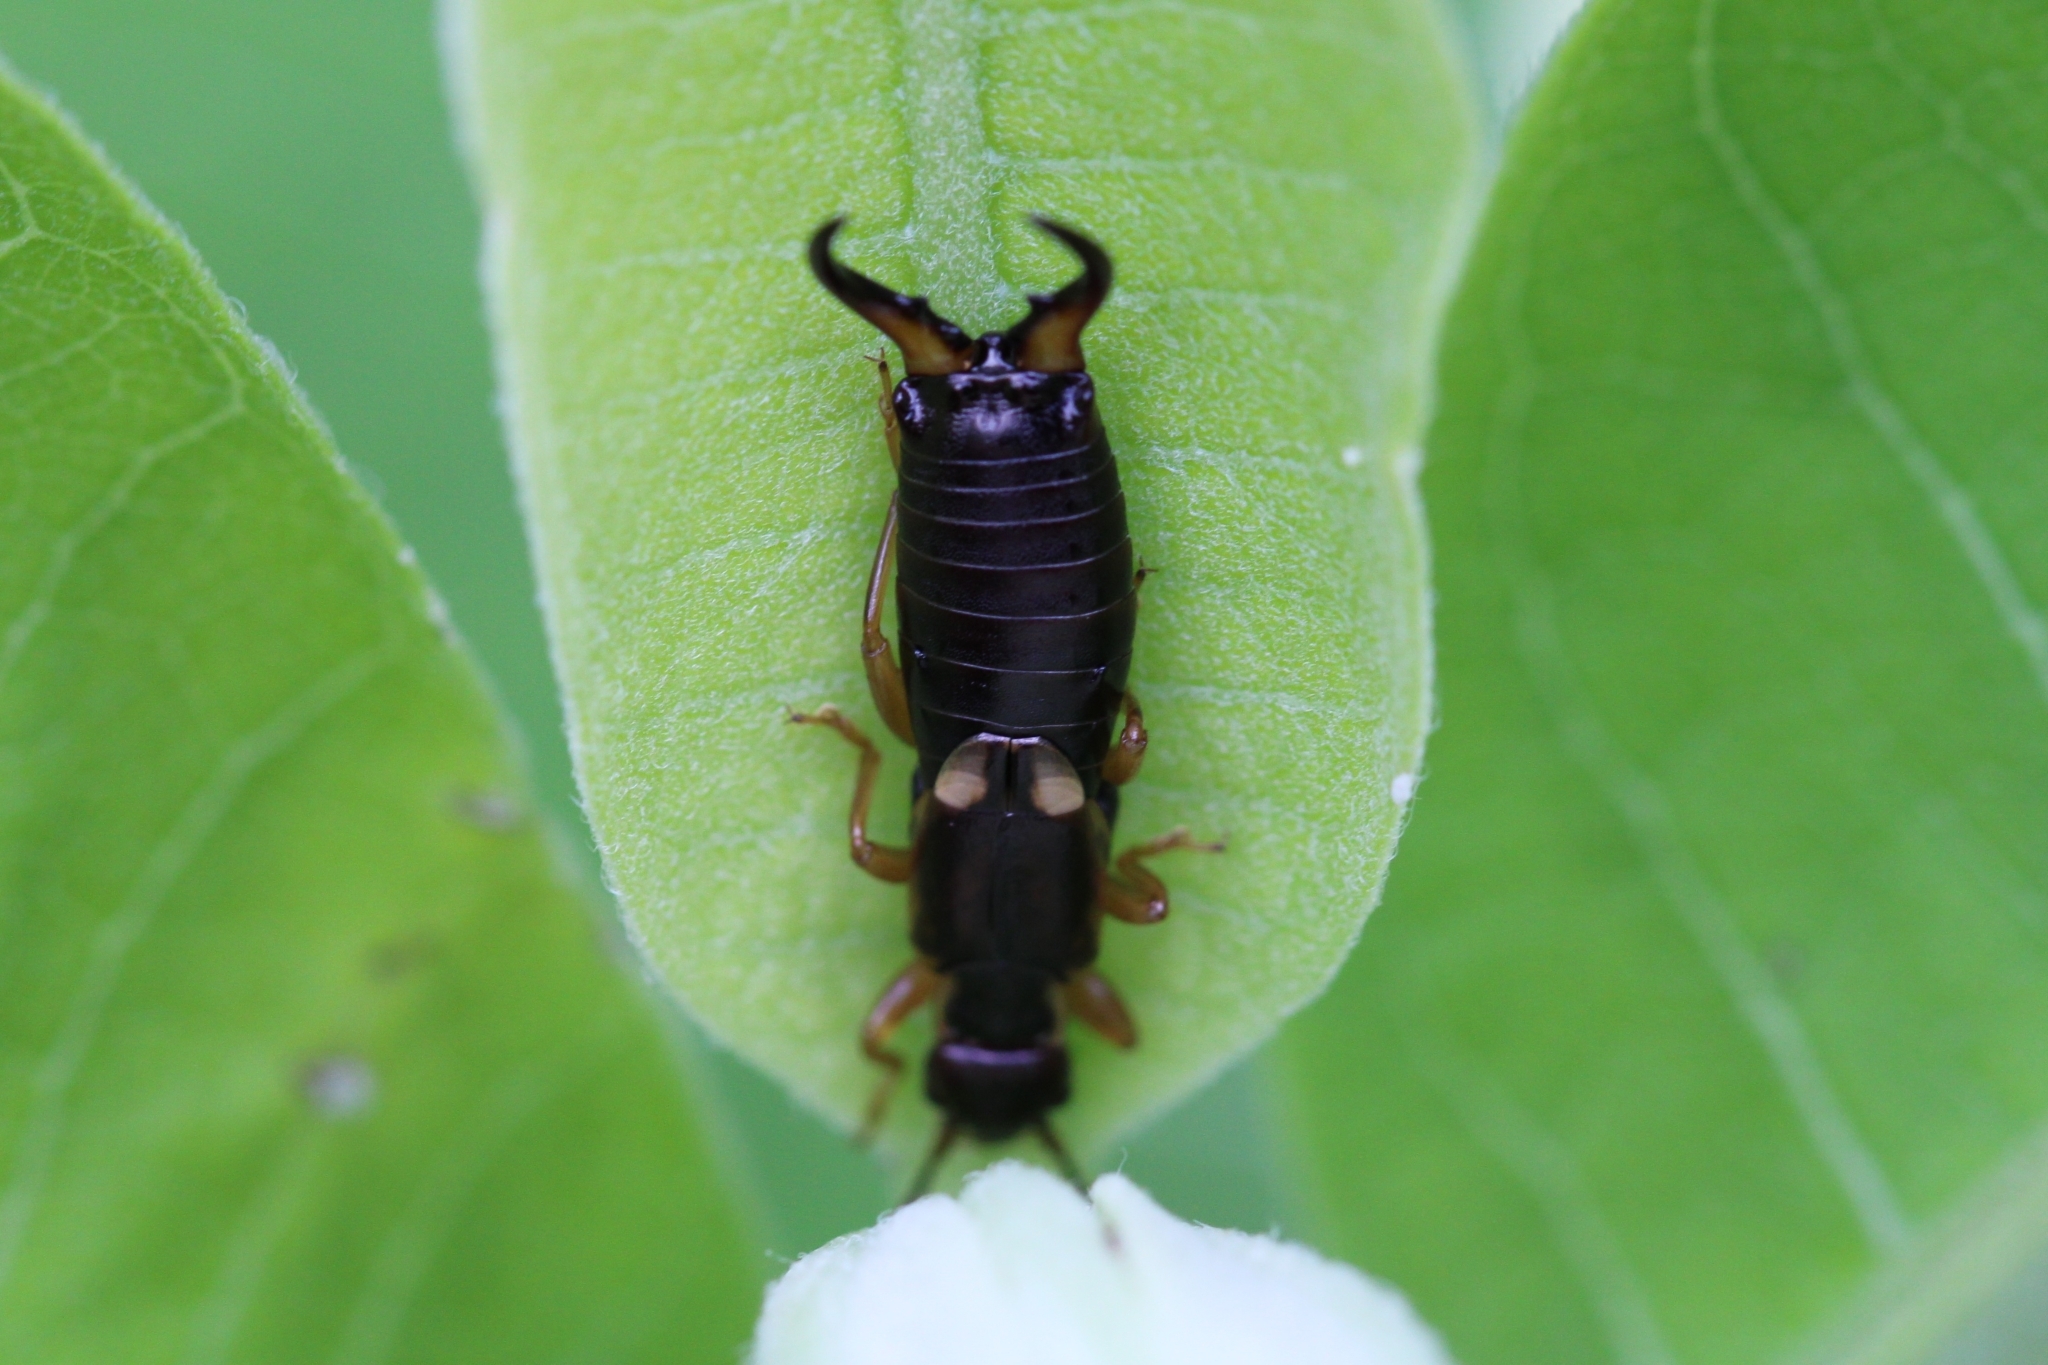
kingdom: Animalia
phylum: Arthropoda
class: Insecta
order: Dermaptera
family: Forficulidae
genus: Forficula
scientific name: Forficula
